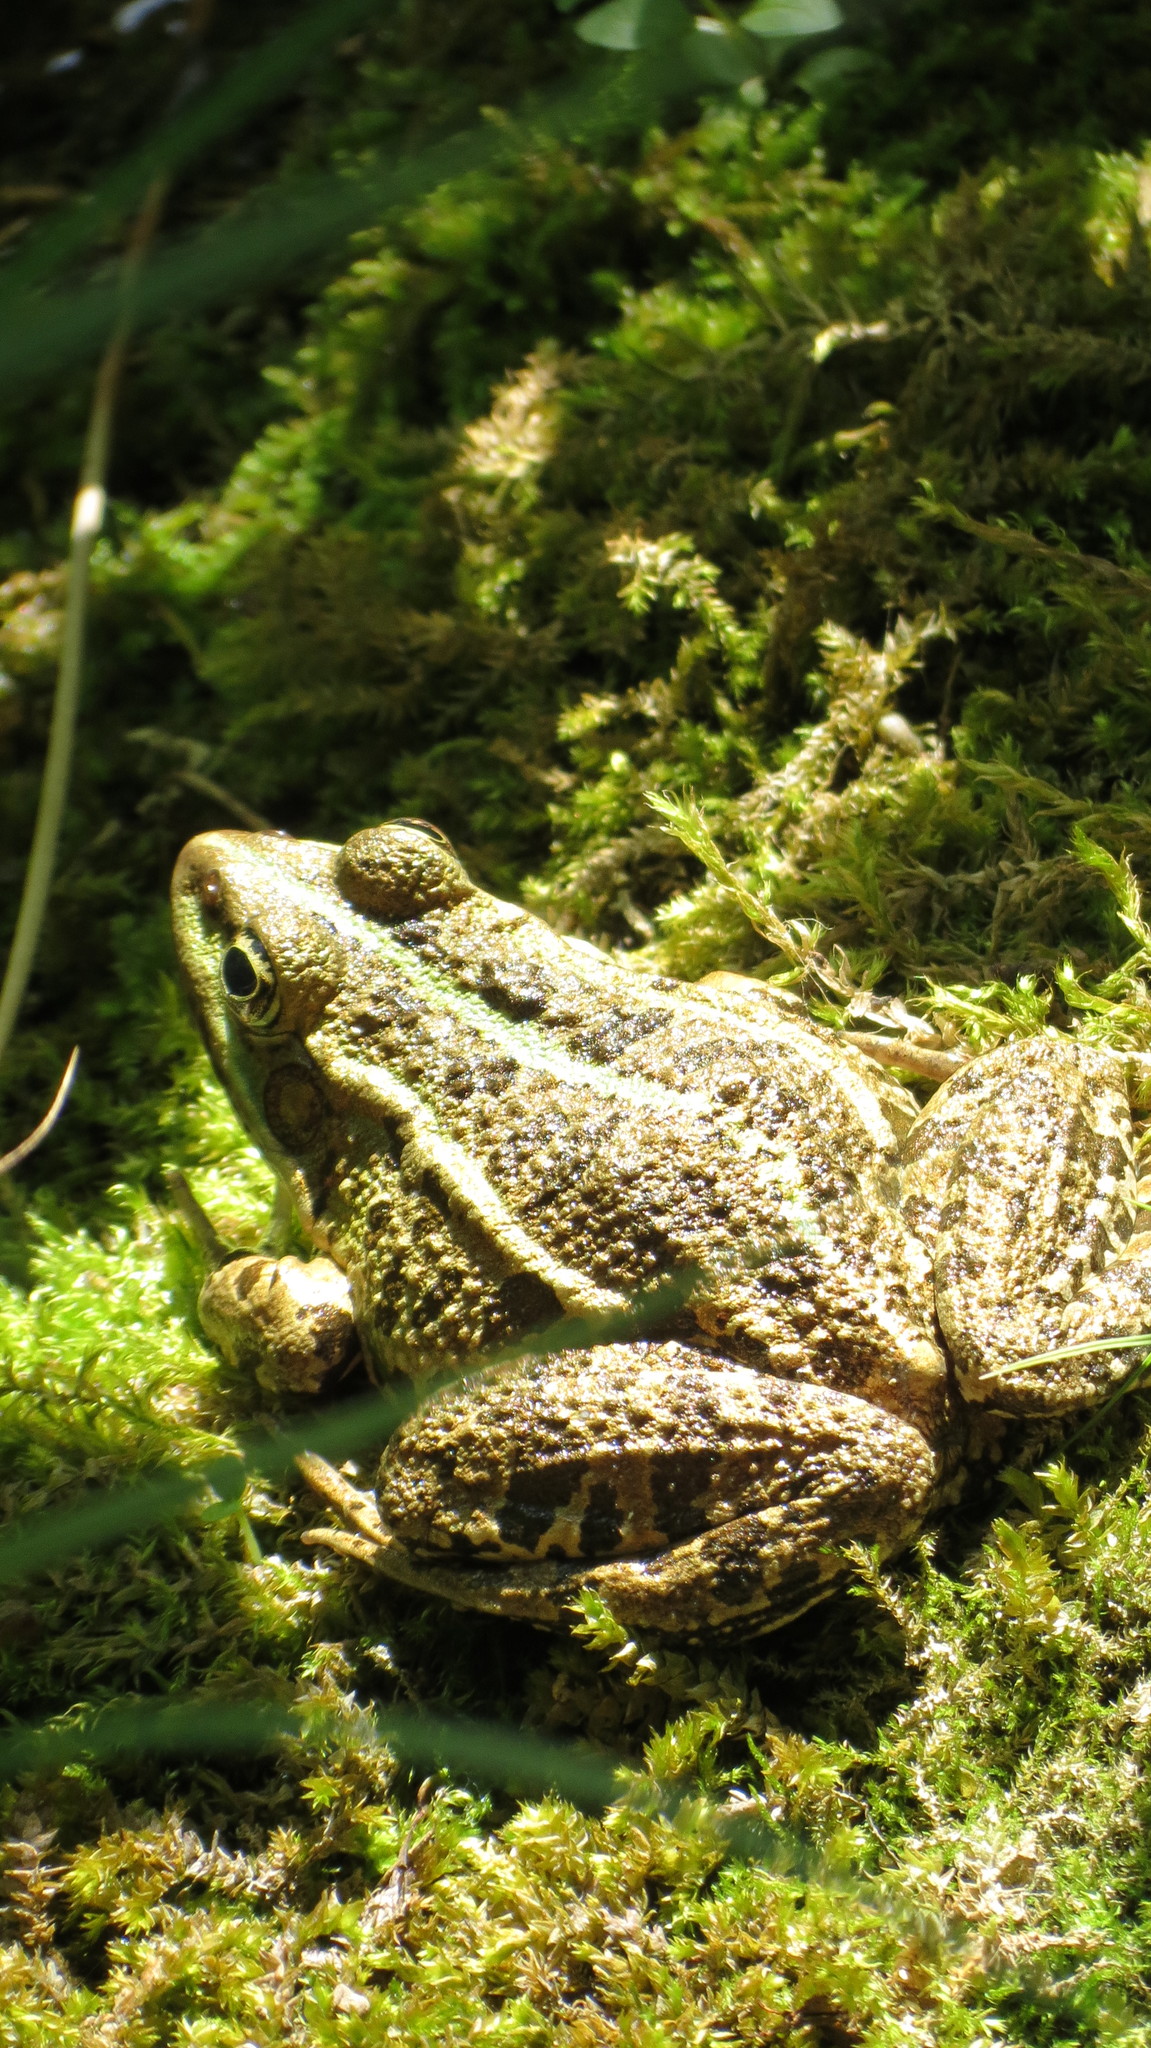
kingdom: Animalia
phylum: Chordata
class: Amphibia
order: Anura
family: Ranidae
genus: Pelophylax
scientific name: Pelophylax ridibundus
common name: Marsh frog
